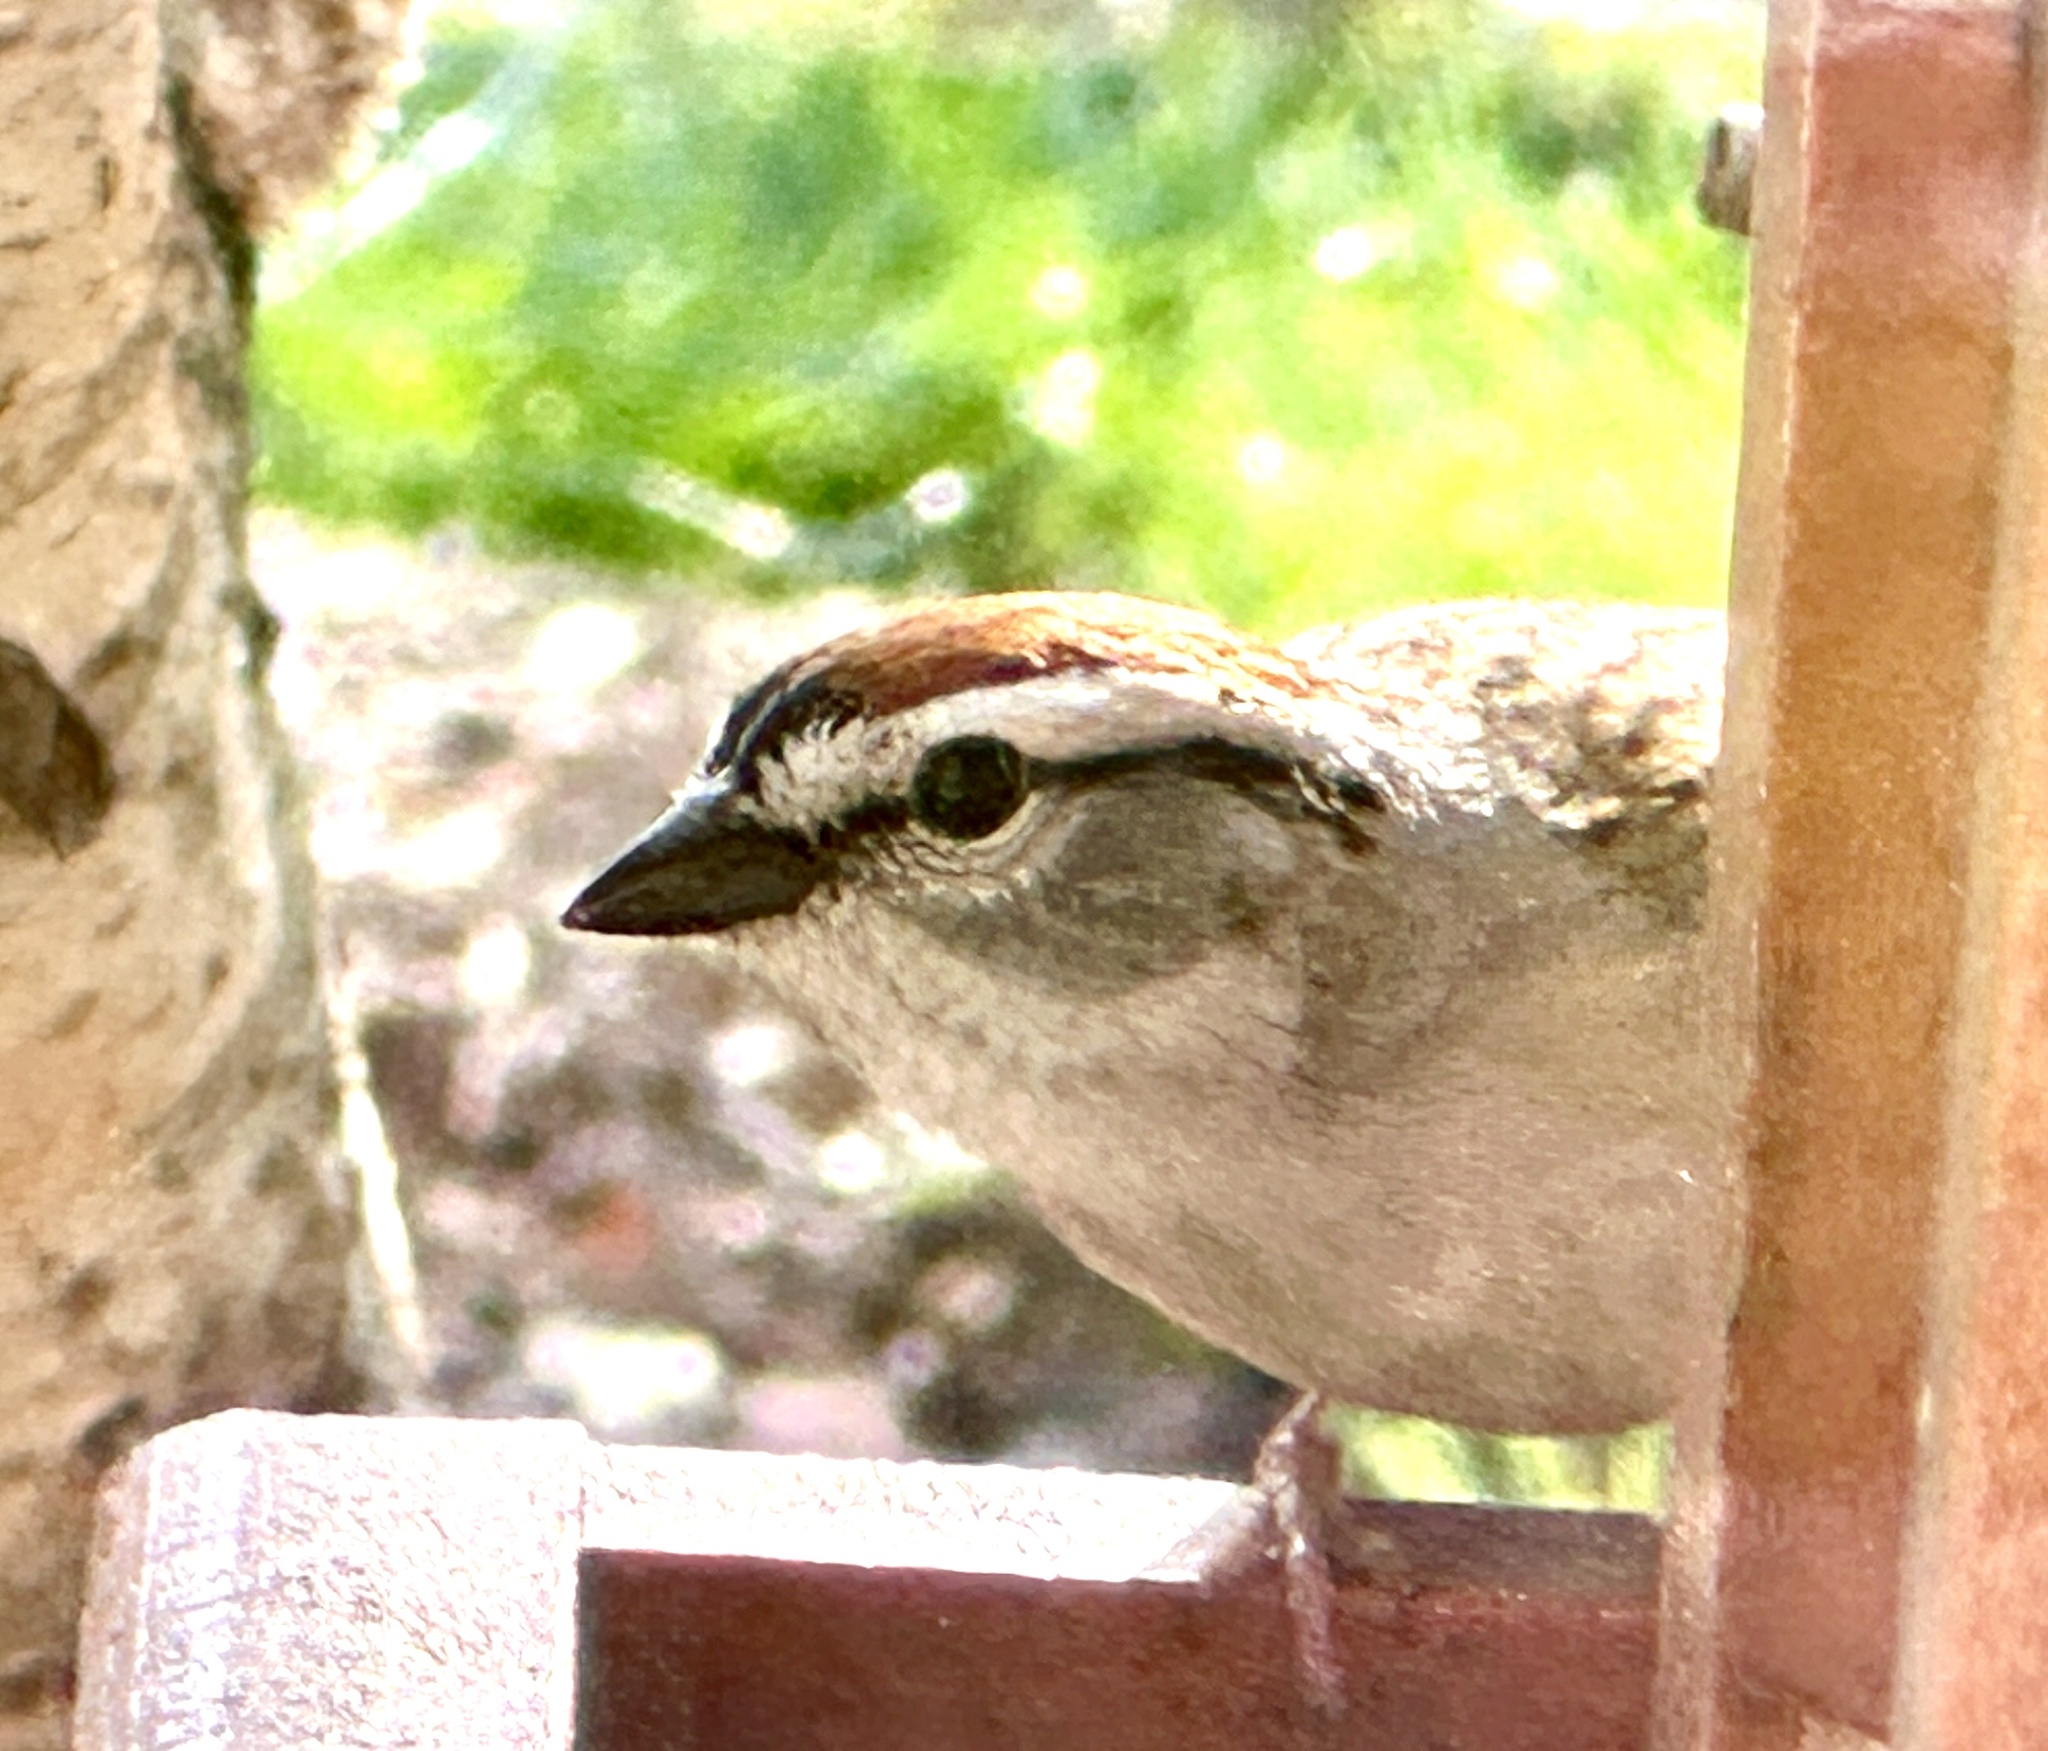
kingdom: Animalia
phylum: Chordata
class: Aves
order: Passeriformes
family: Passerellidae
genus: Spizella
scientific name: Spizella passerina
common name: Chipping sparrow
